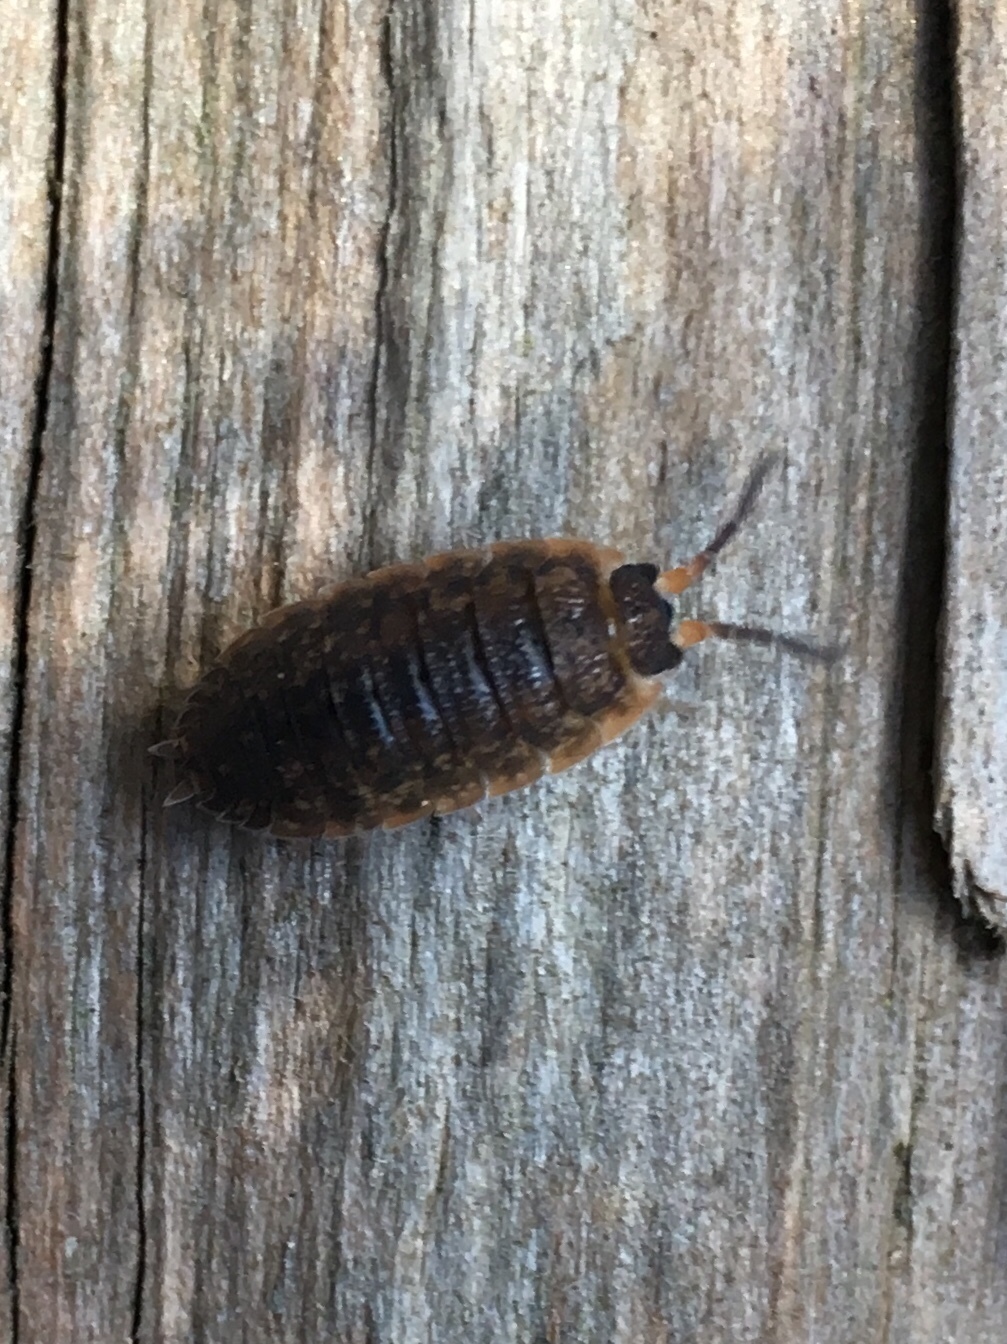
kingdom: Animalia
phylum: Arthropoda
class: Malacostraca
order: Isopoda
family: Porcellionidae
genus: Porcellio
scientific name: Porcellio scaber
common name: Common rough woodlouse
